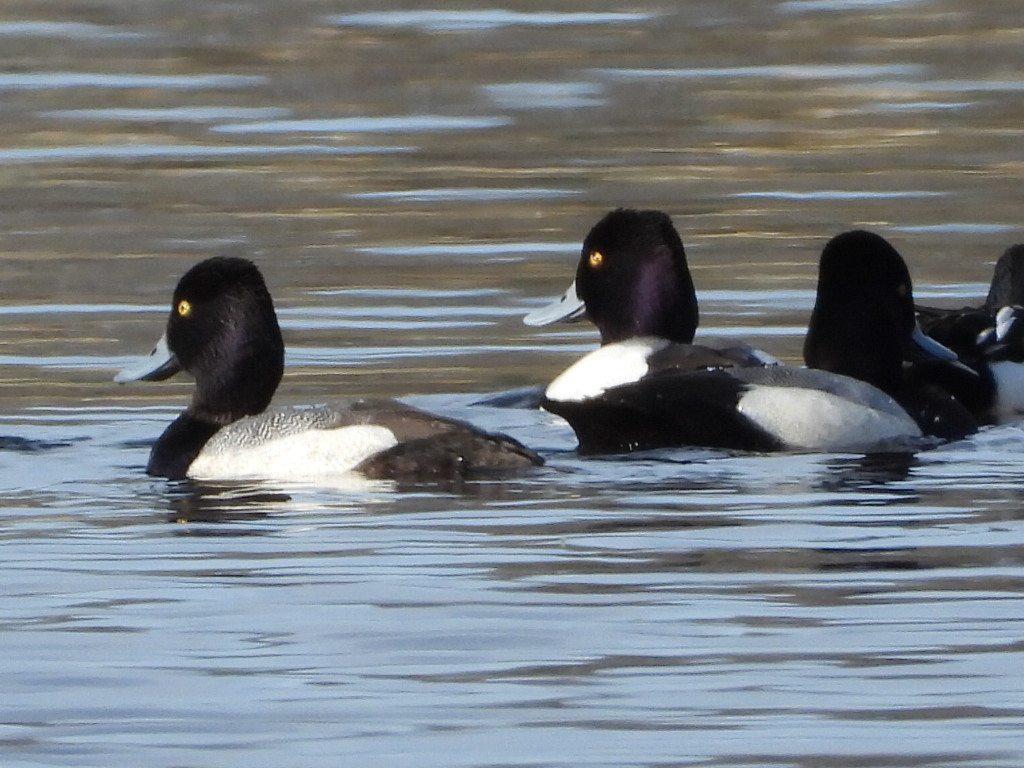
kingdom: Animalia
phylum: Chordata
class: Aves
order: Anseriformes
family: Anatidae
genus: Aythya
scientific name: Aythya affinis
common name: Lesser scaup
